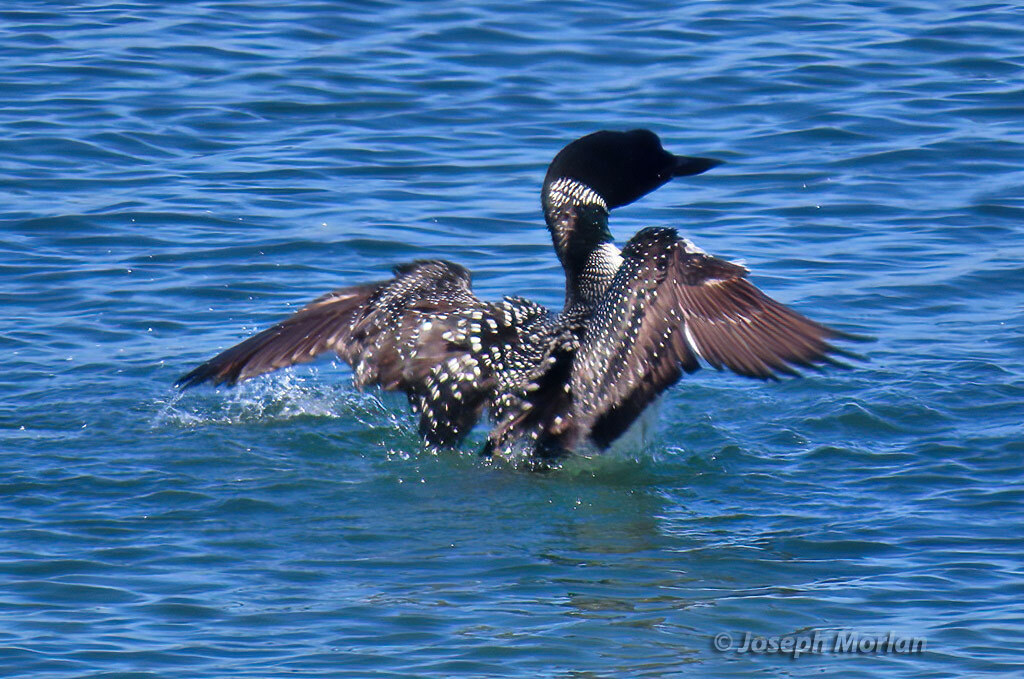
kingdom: Animalia
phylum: Chordata
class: Aves
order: Gaviiformes
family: Gaviidae
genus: Gavia
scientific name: Gavia immer
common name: Common loon
